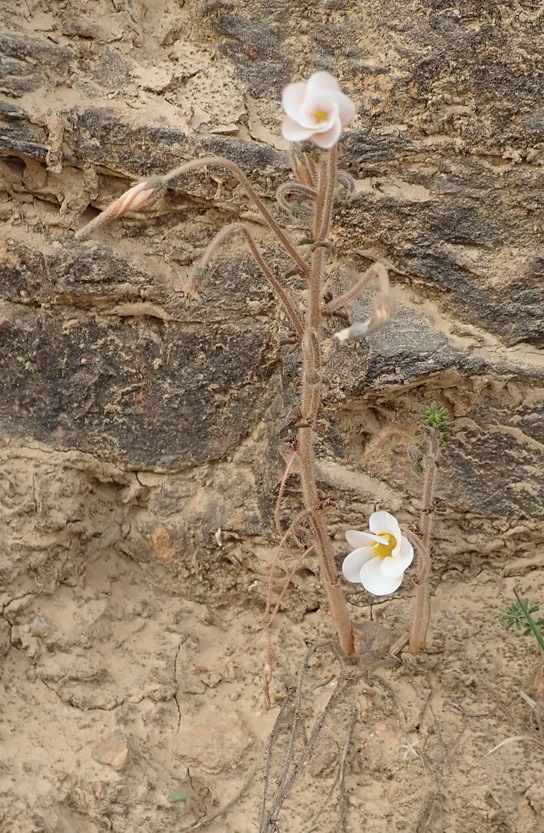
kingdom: Plantae
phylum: Tracheophyta
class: Magnoliopsida
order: Oxalidales
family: Oxalidaceae
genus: Oxalis
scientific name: Oxalis viscosa
